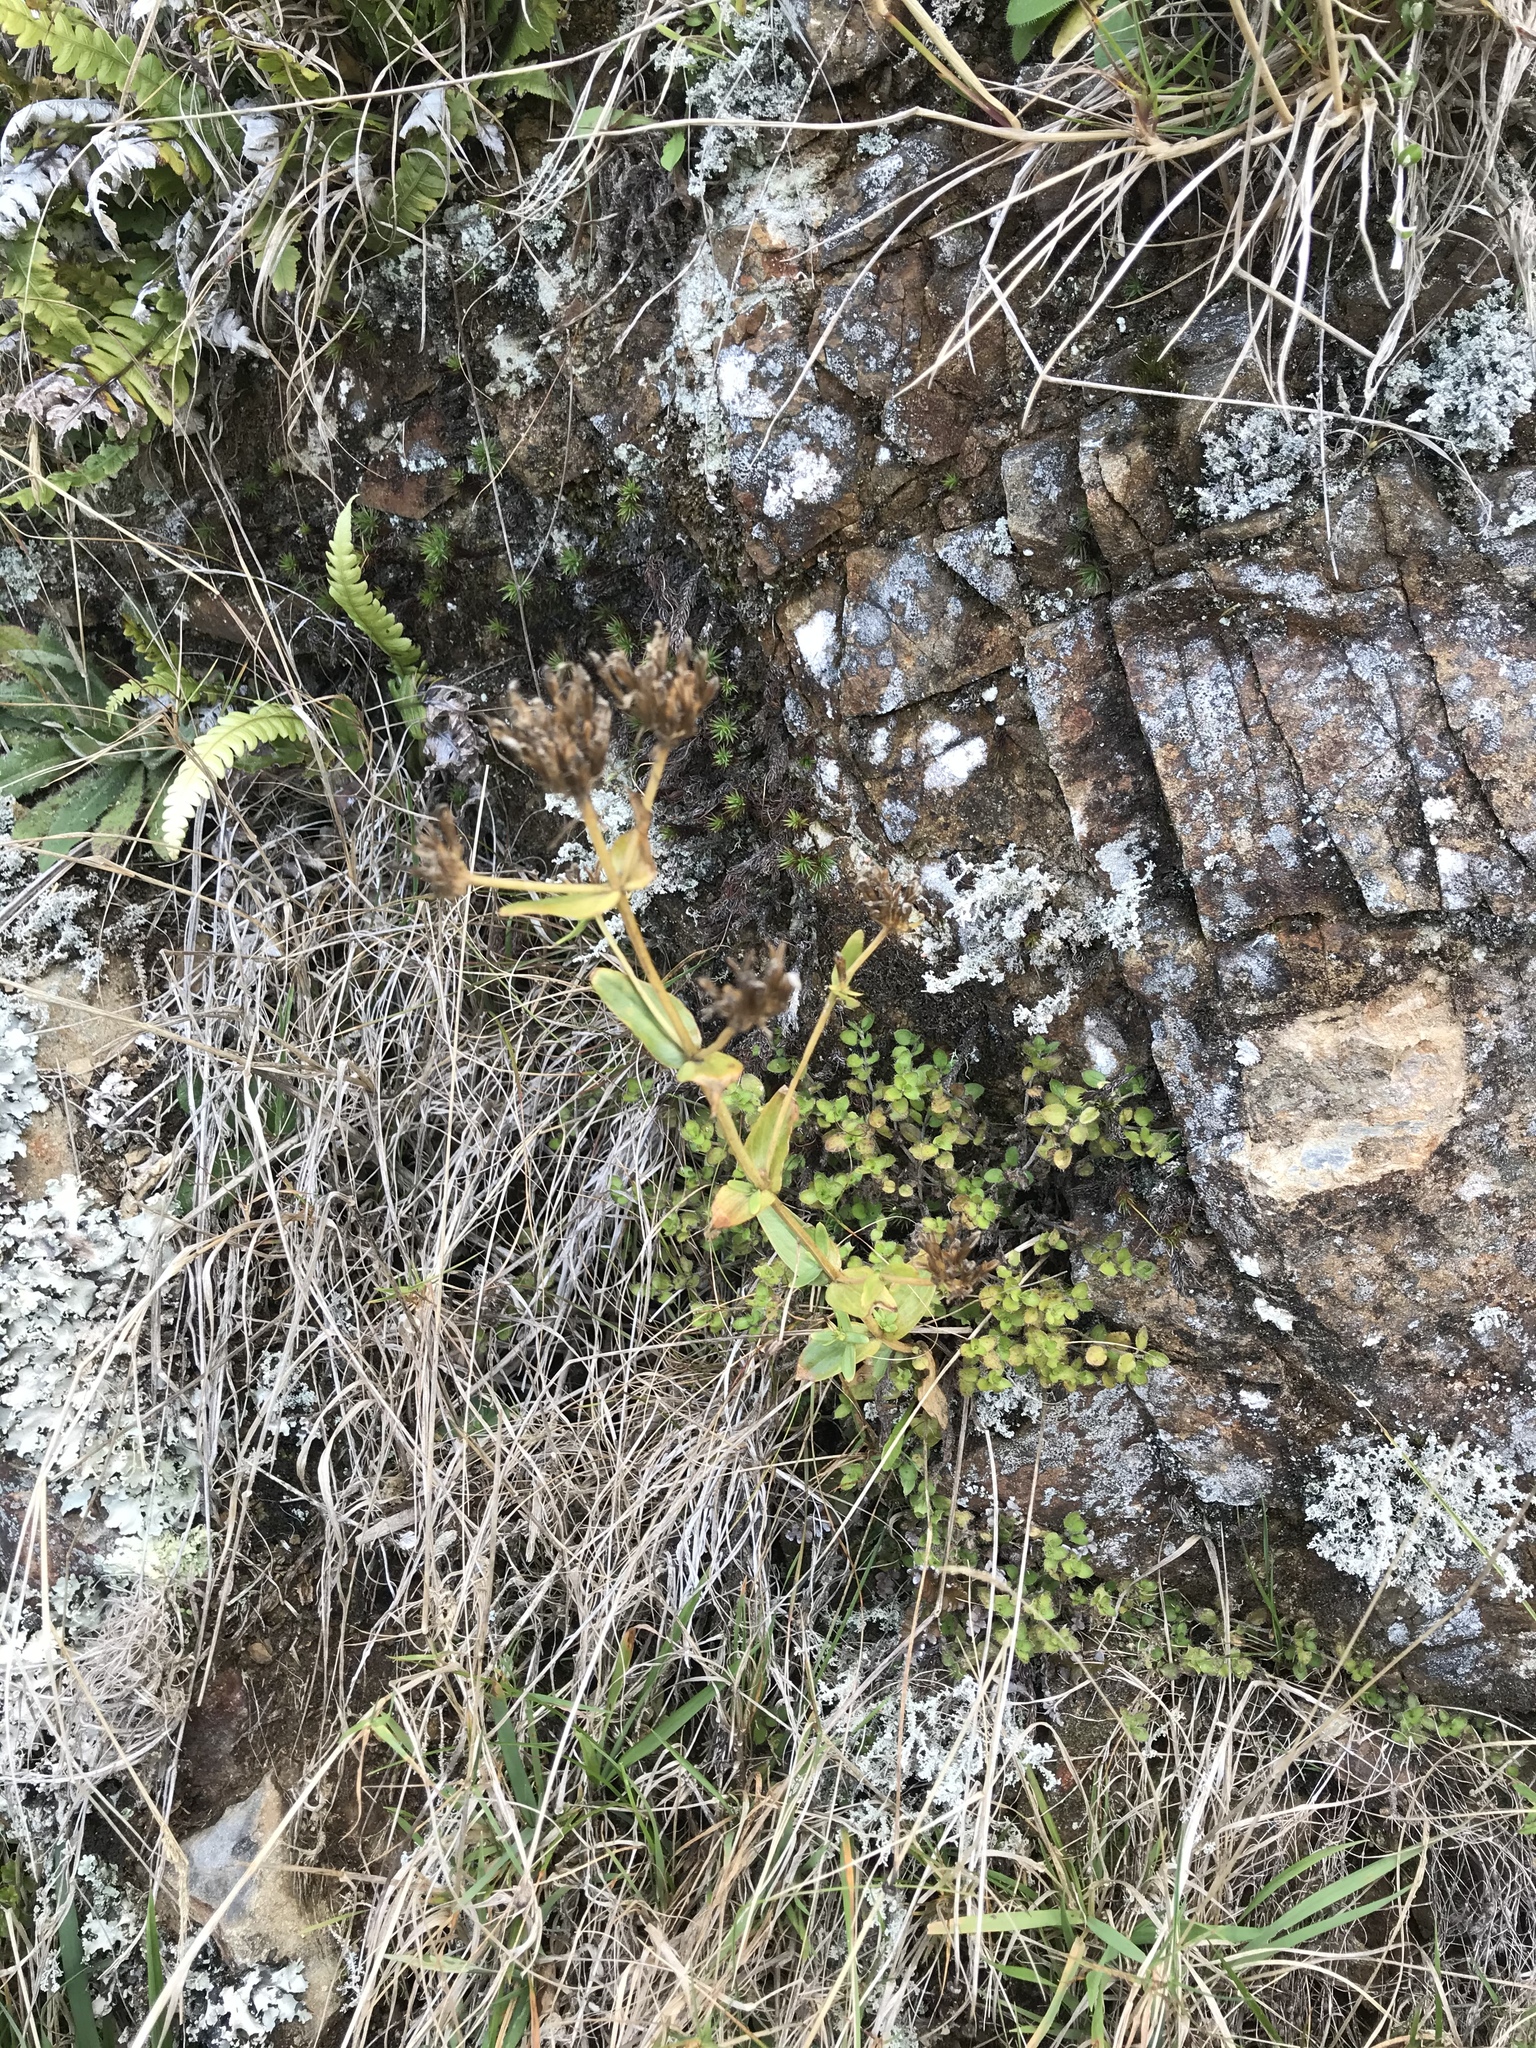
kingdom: Plantae
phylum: Tracheophyta
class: Magnoliopsida
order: Gentianales
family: Gentianaceae
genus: Centaurium
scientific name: Centaurium erythraea
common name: Common centaury
